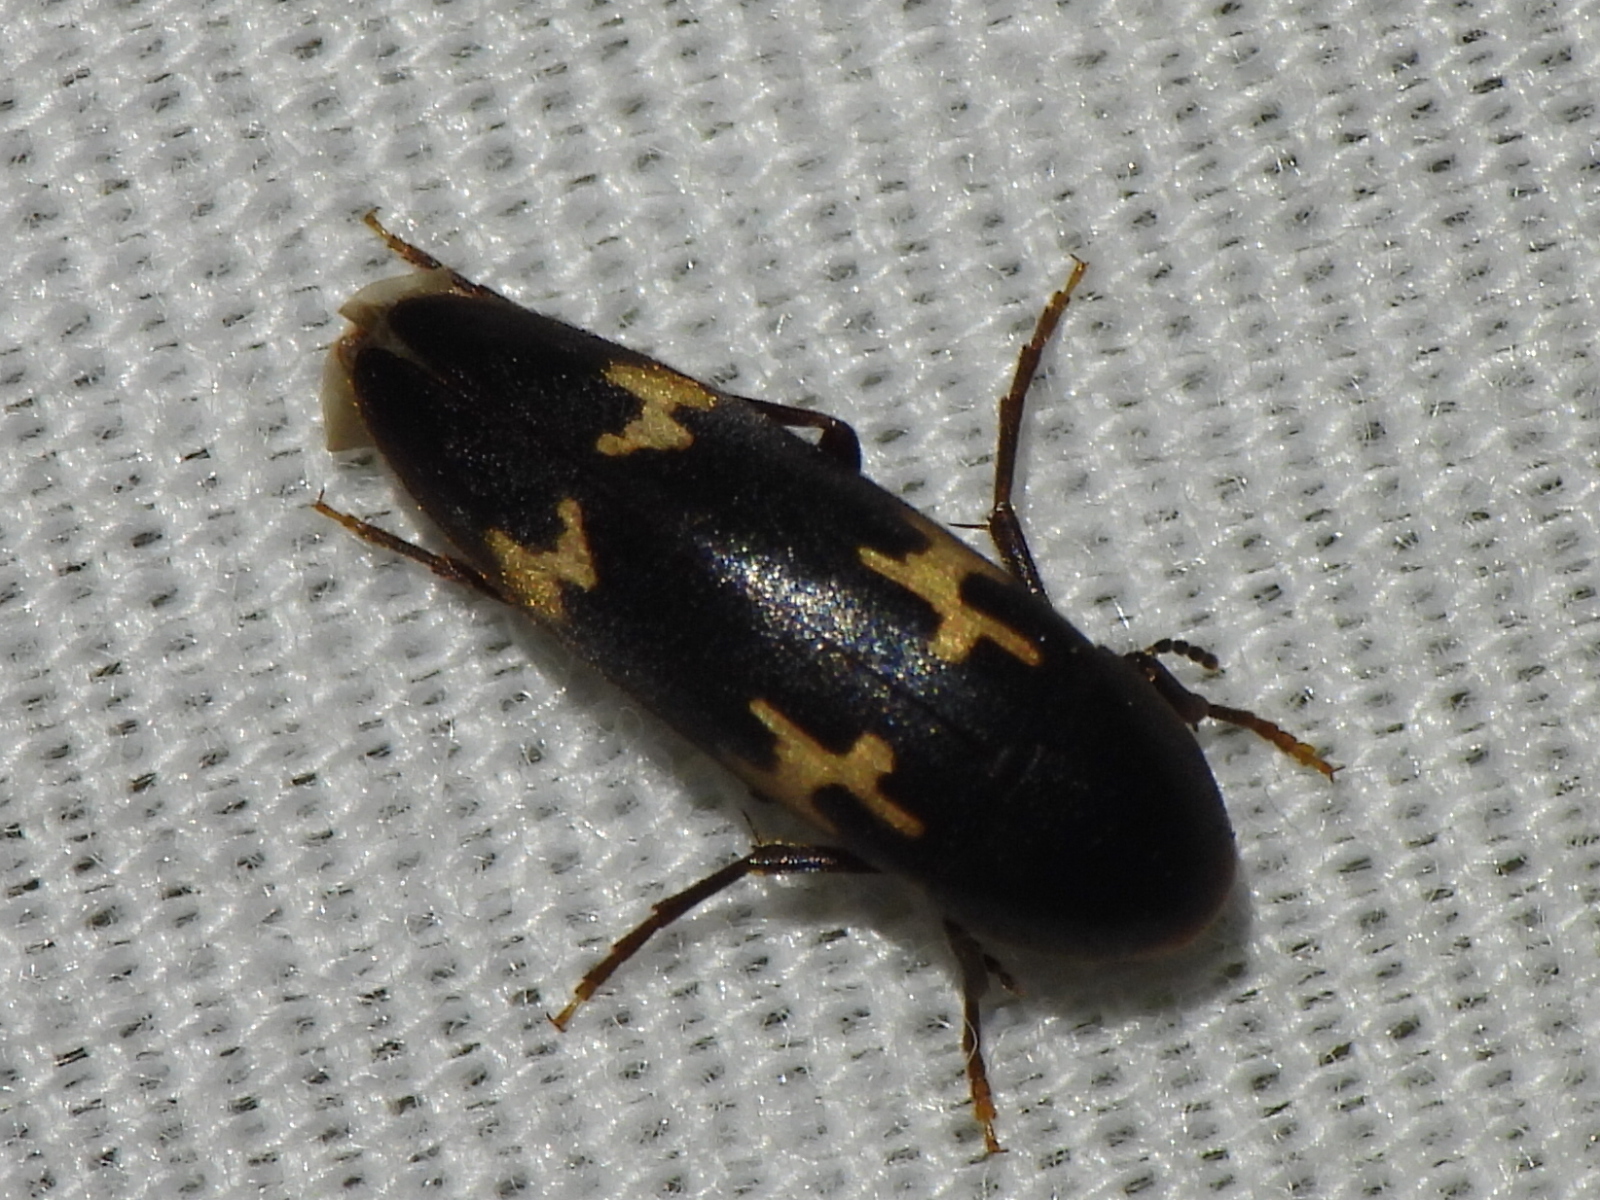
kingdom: Animalia
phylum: Arthropoda
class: Insecta
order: Coleoptera
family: Melandryidae
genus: Dircaea
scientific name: Dircaea liturata
